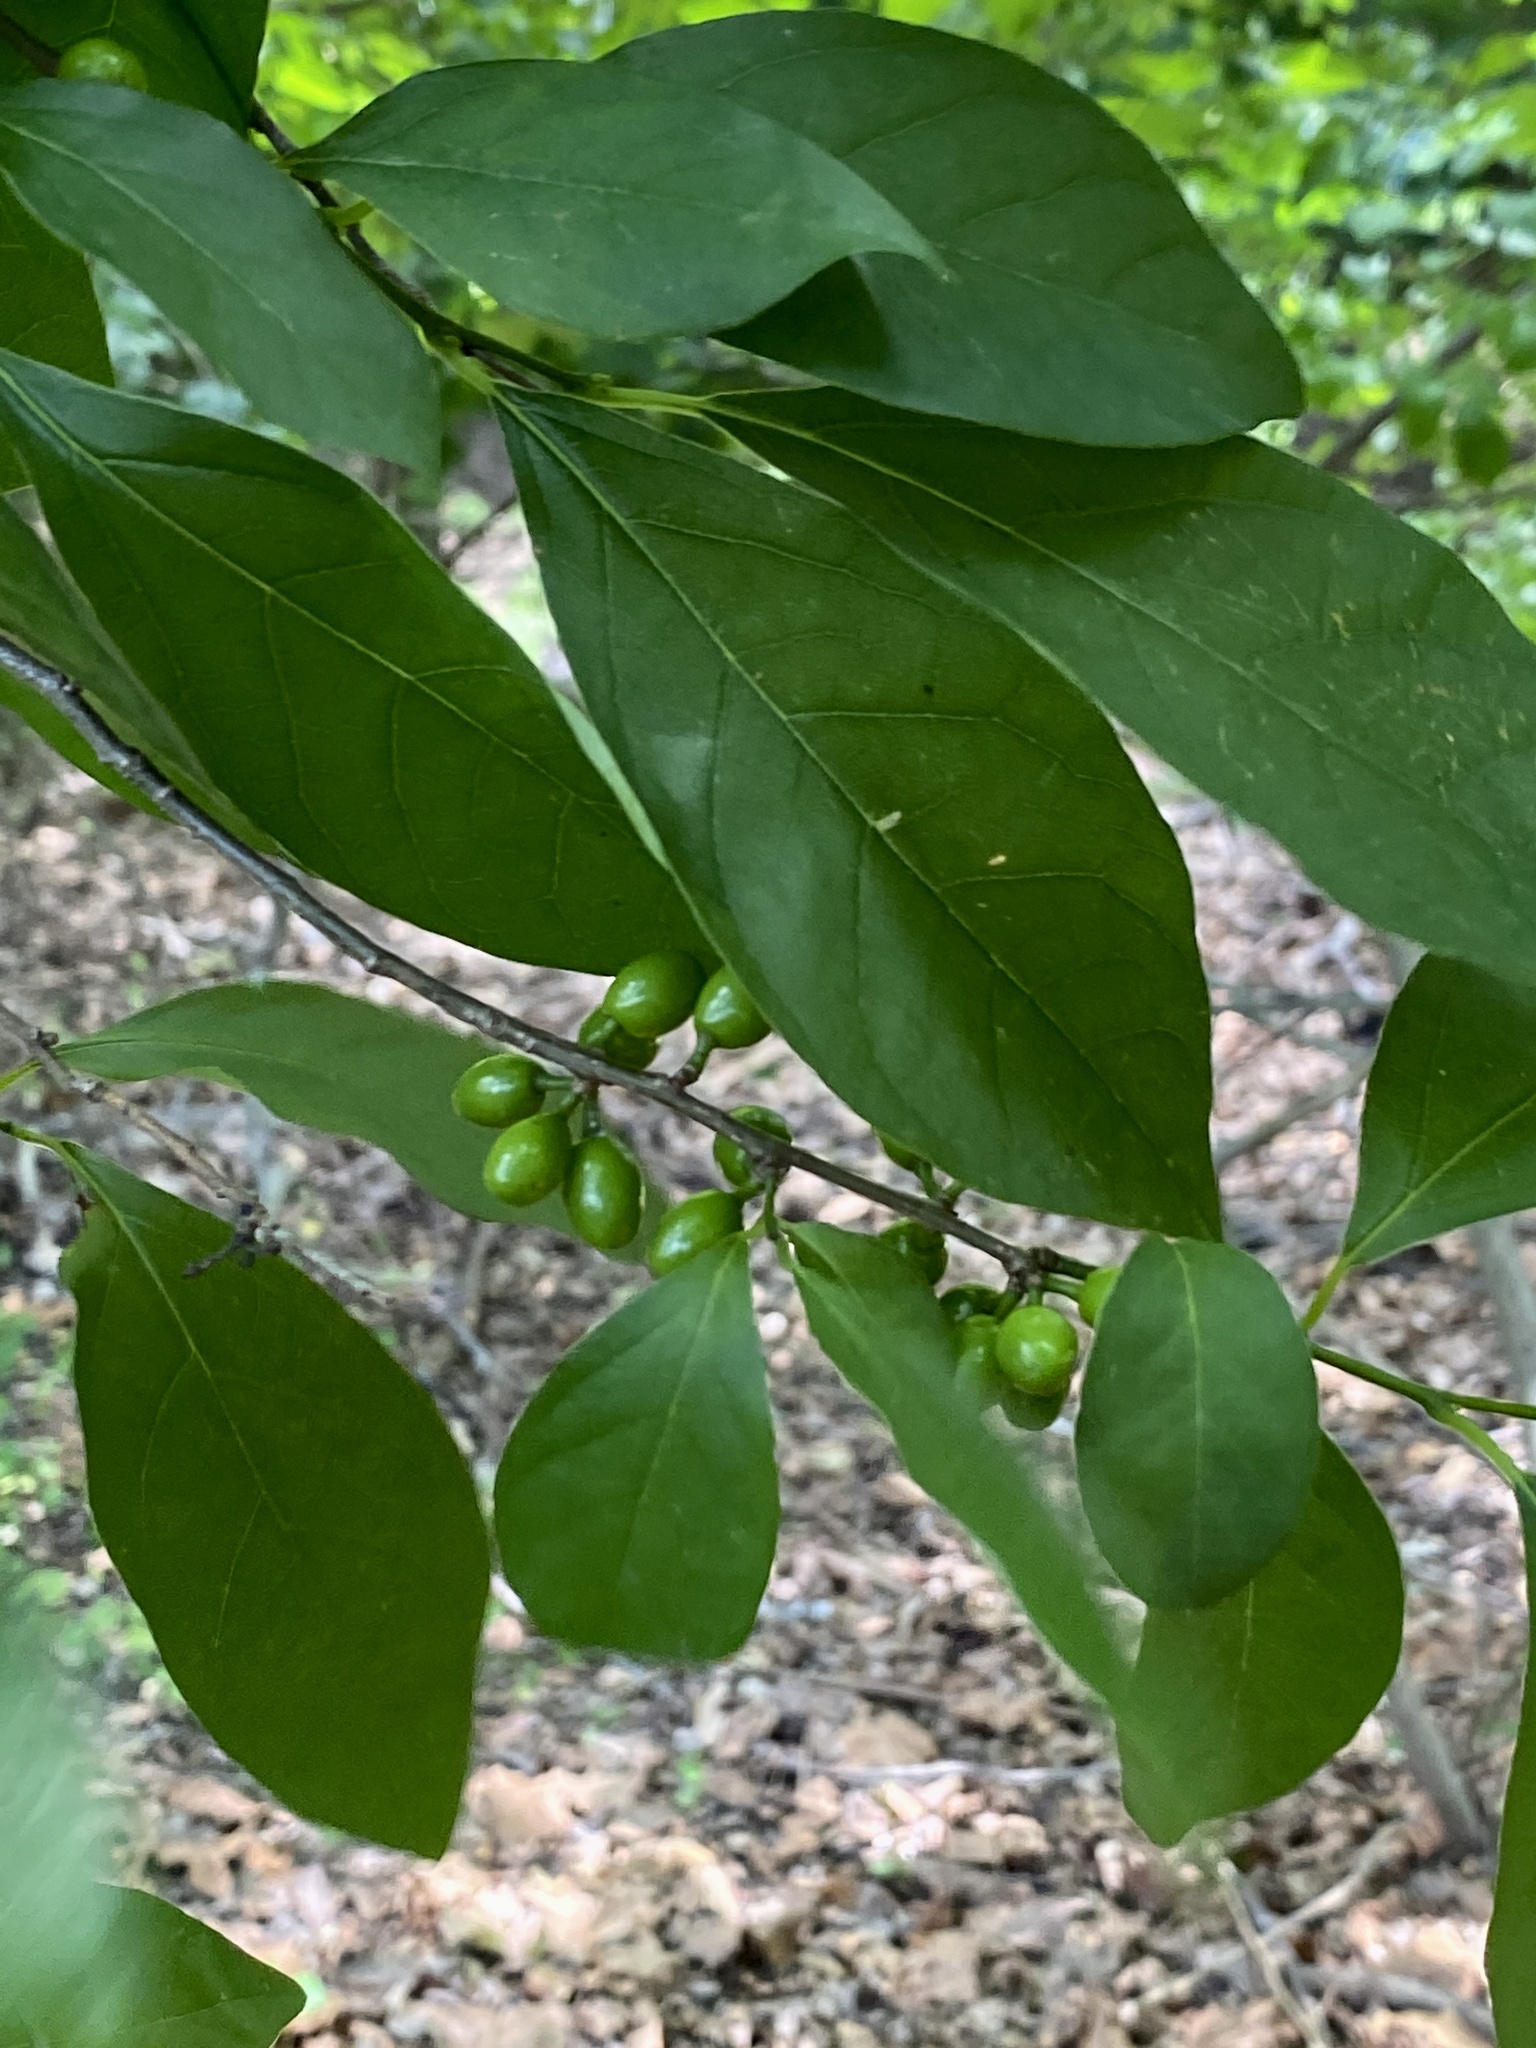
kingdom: Plantae
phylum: Tracheophyta
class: Magnoliopsida
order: Laurales
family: Lauraceae
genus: Lindera
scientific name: Lindera benzoin
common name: Spicebush
